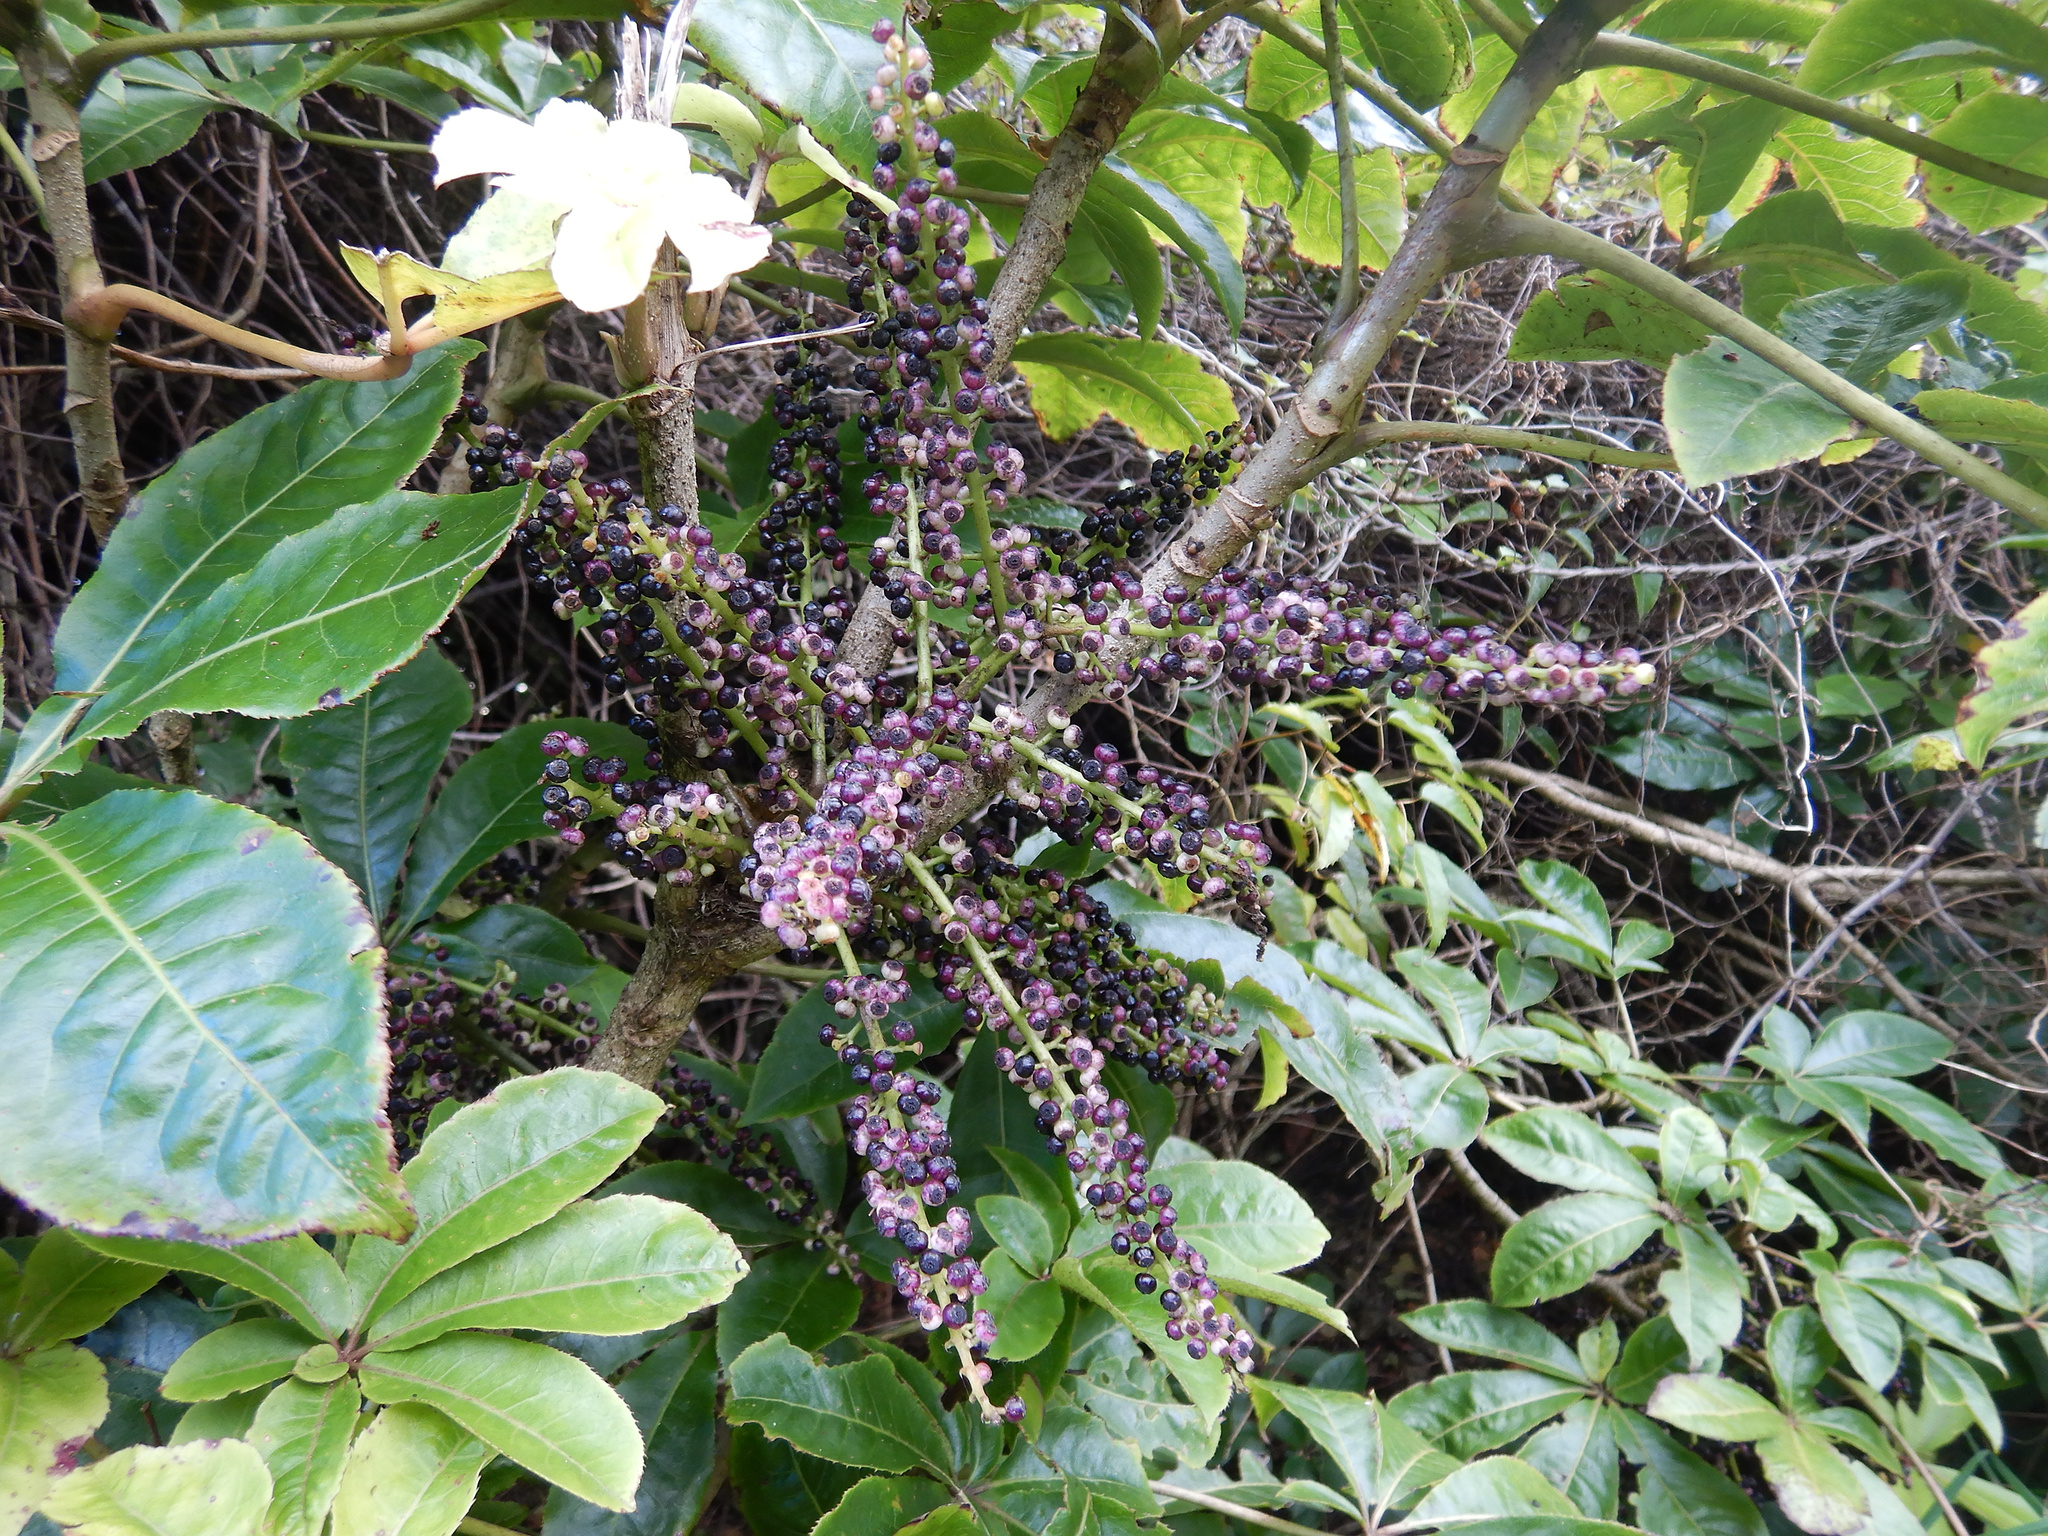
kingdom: Plantae
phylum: Tracheophyta
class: Magnoliopsida
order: Apiales
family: Araliaceae
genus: Schefflera
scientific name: Schefflera digitata
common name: Pate
